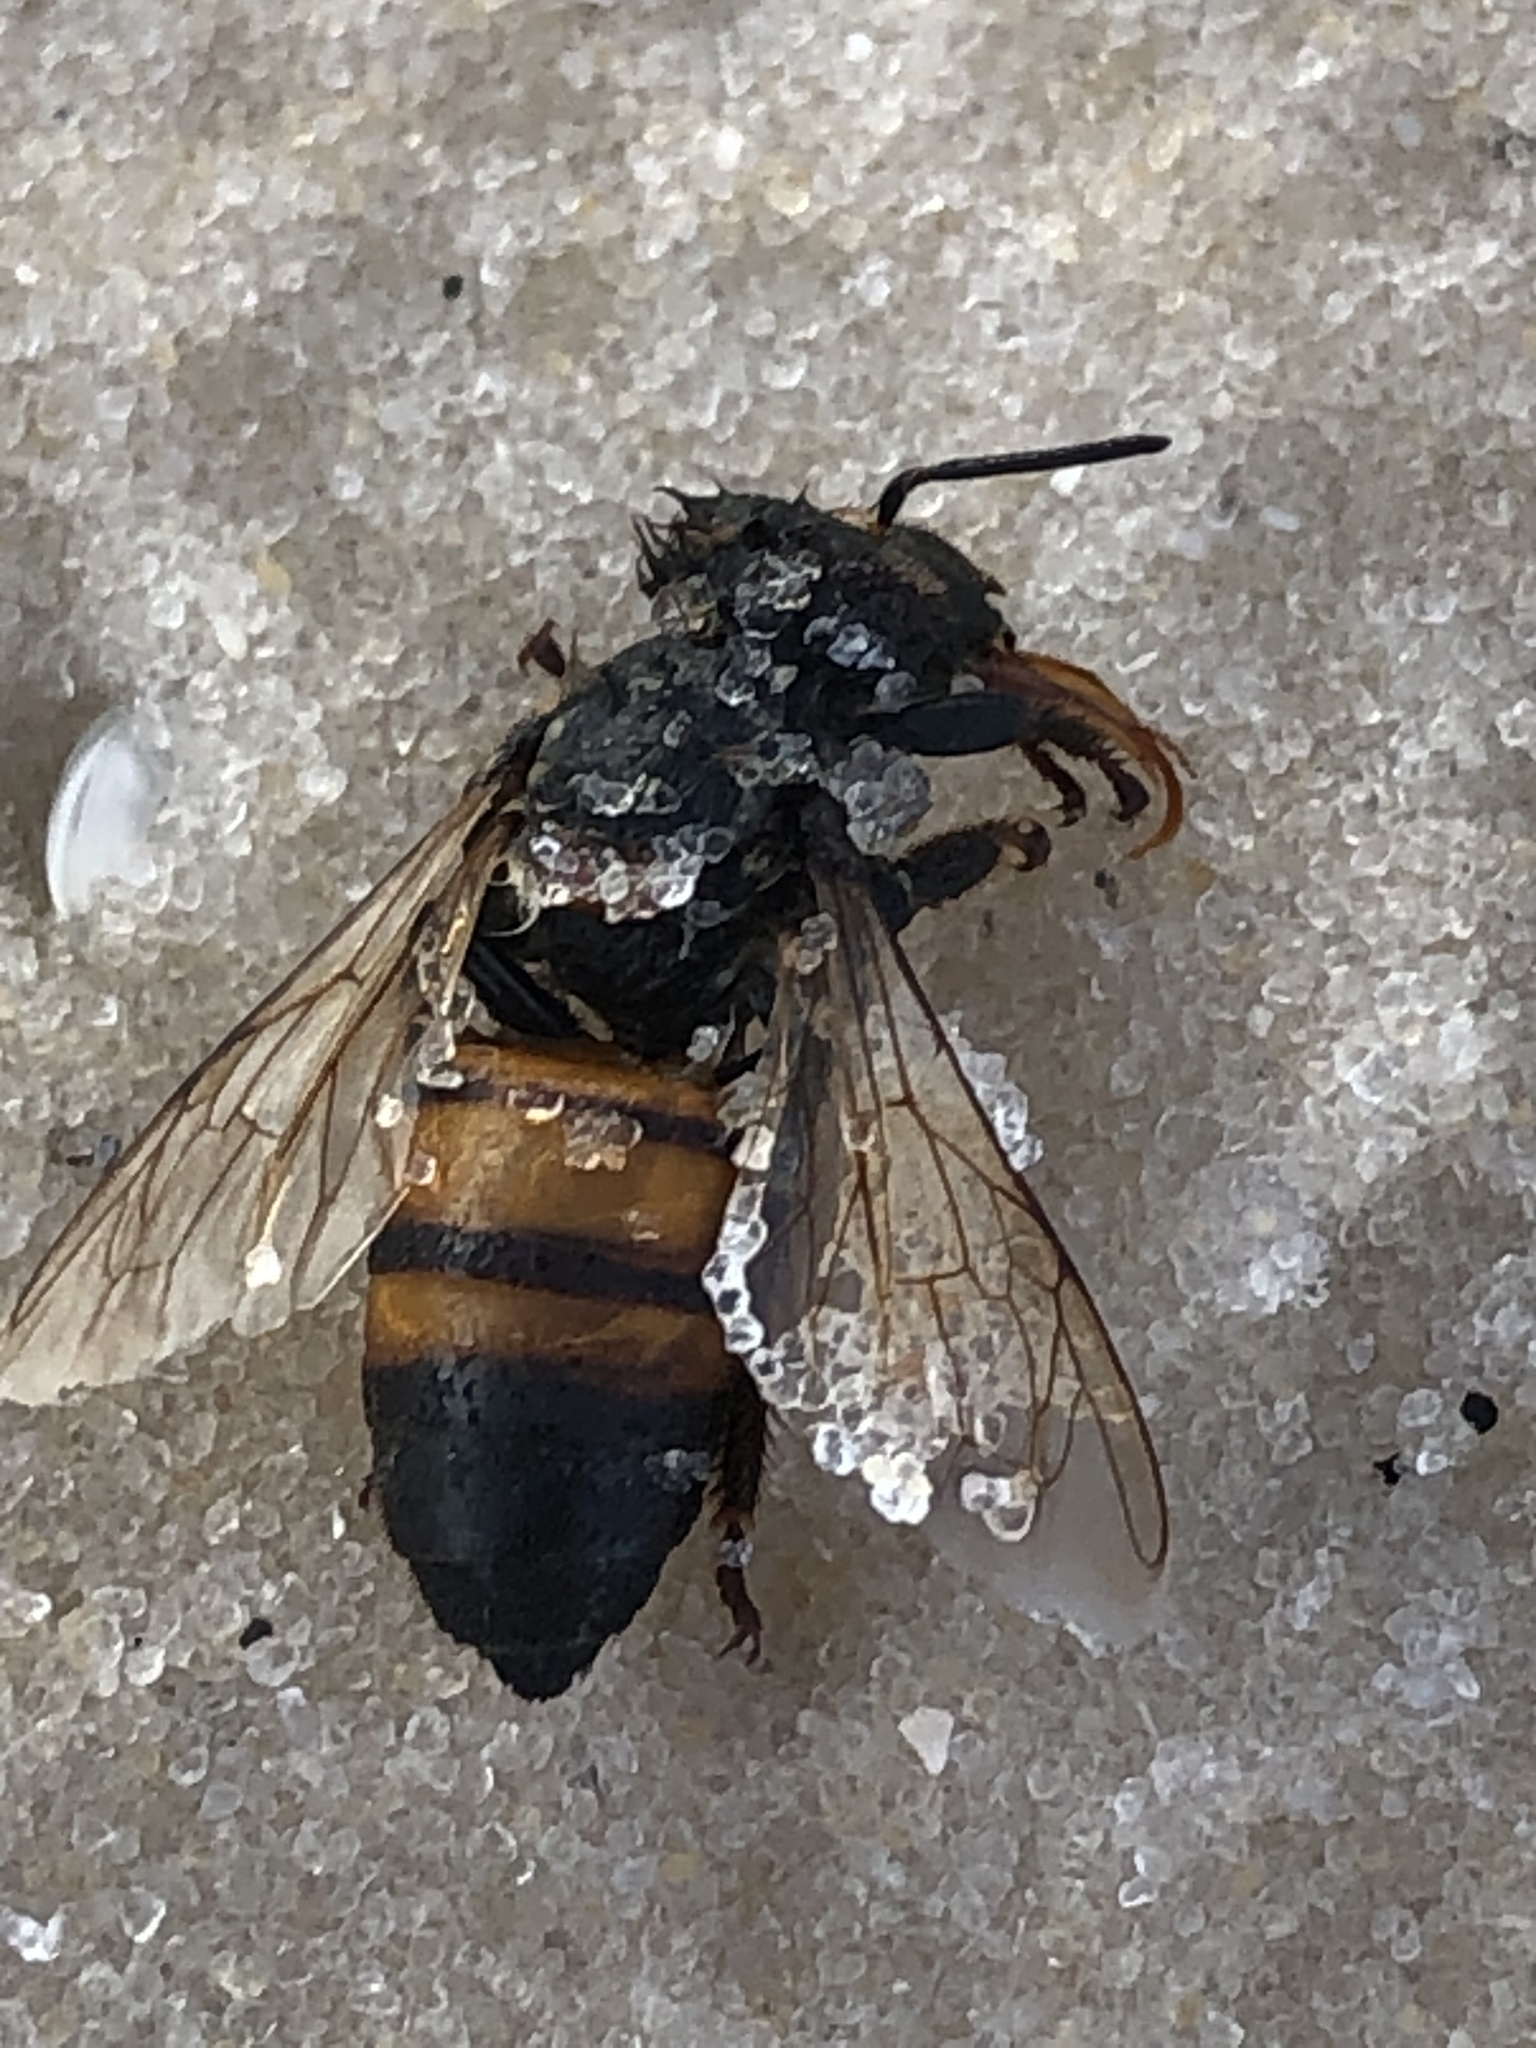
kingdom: Animalia
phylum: Arthropoda
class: Insecta
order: Hymenoptera
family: Apidae
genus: Apis
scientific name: Apis mellifera
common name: Honey bee
